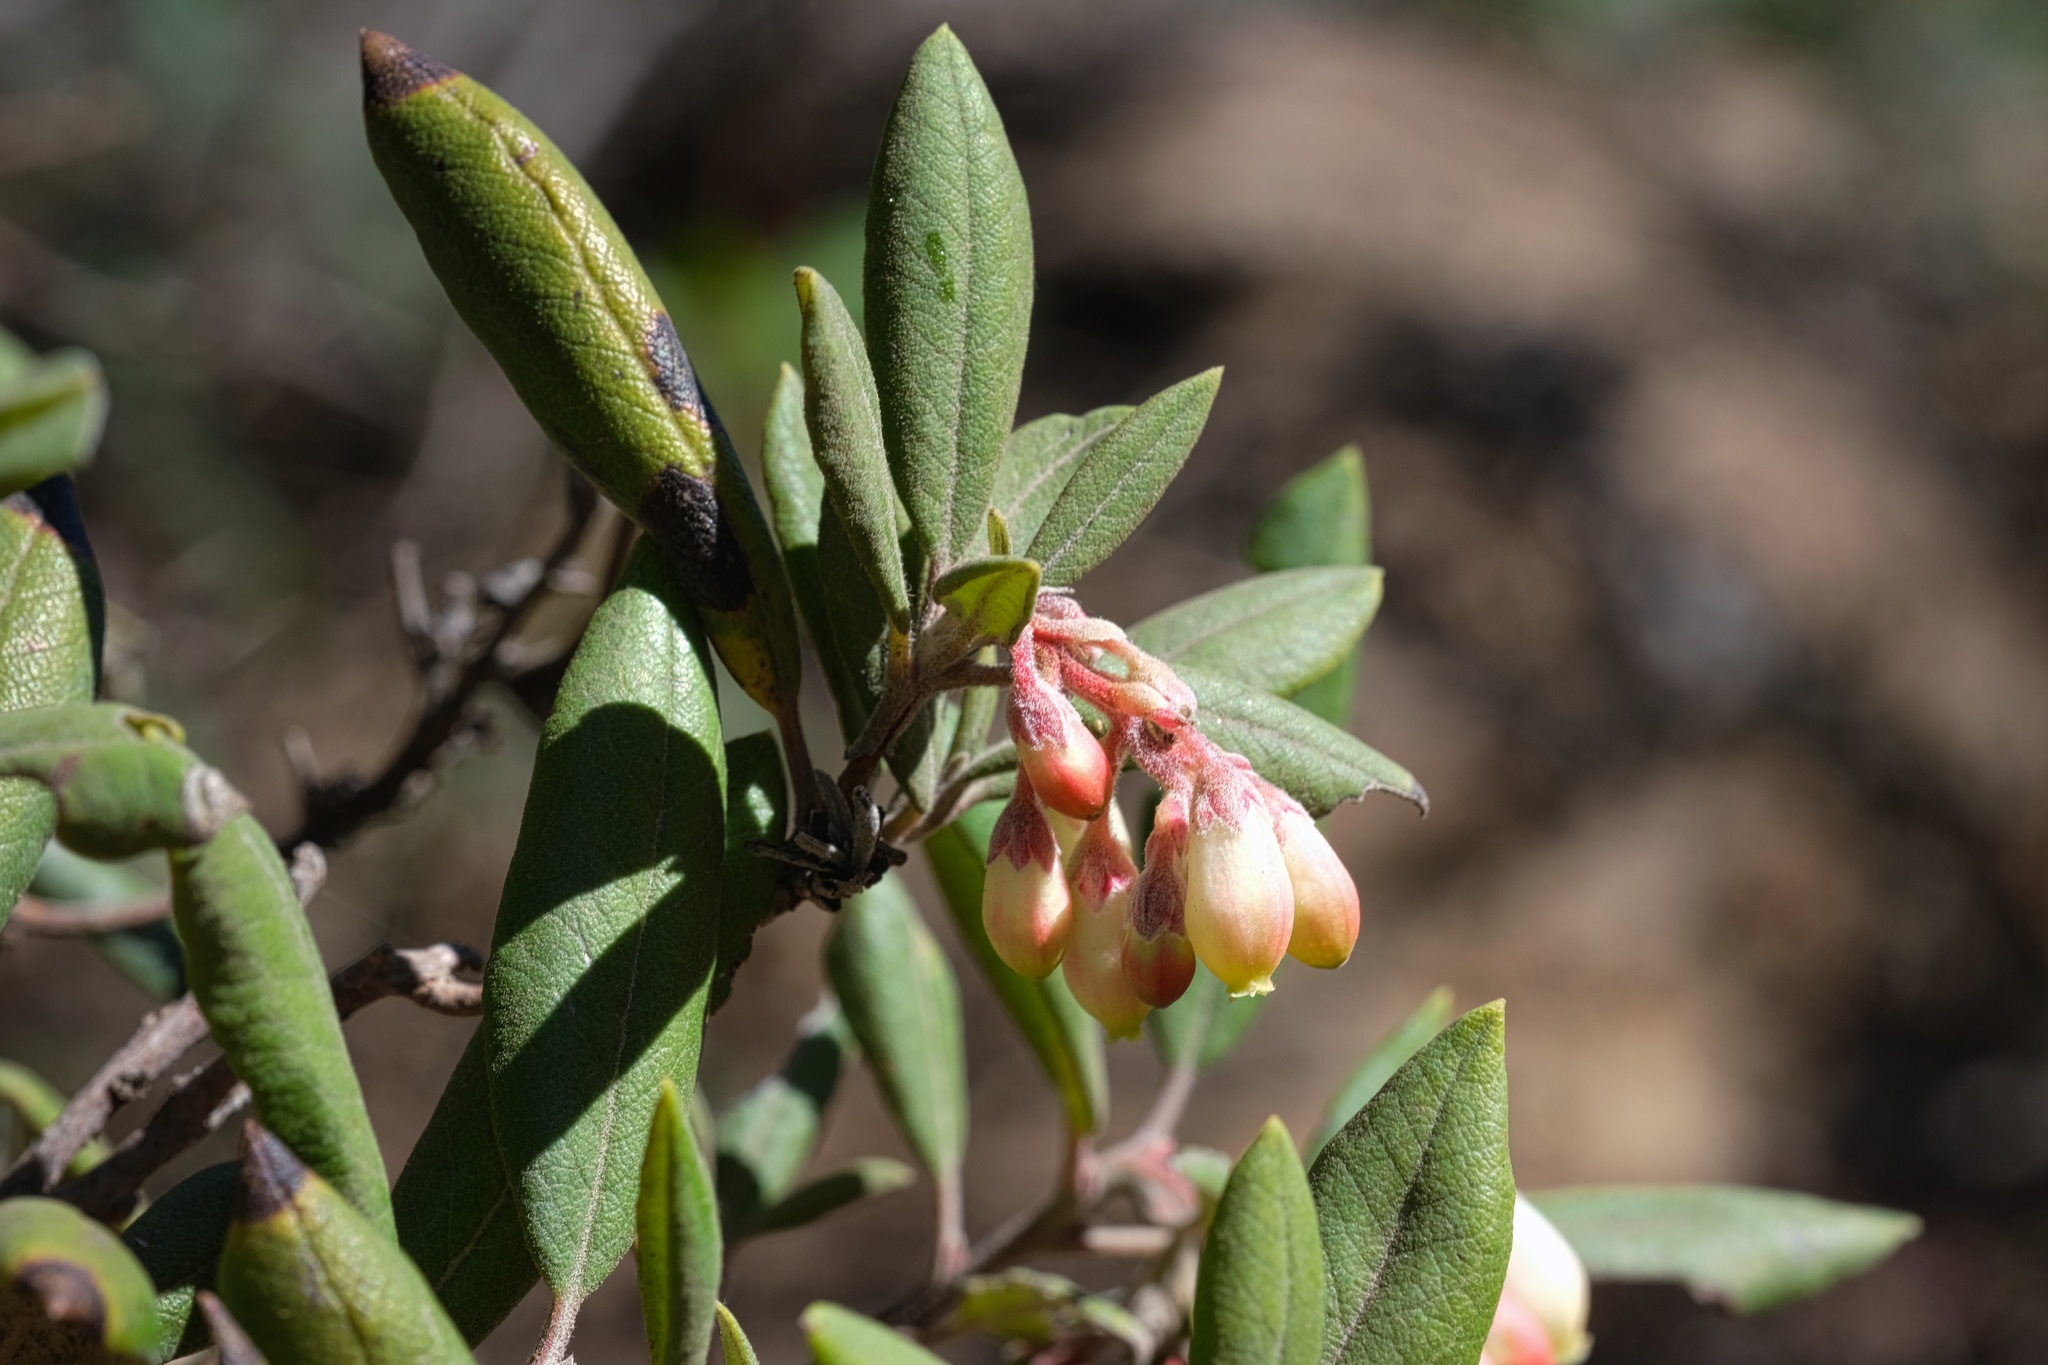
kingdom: Plantae
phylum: Tracheophyta
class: Magnoliopsida
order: Ericales
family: Ericaceae
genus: Arctostaphylos
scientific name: Arctostaphylos bicolor
